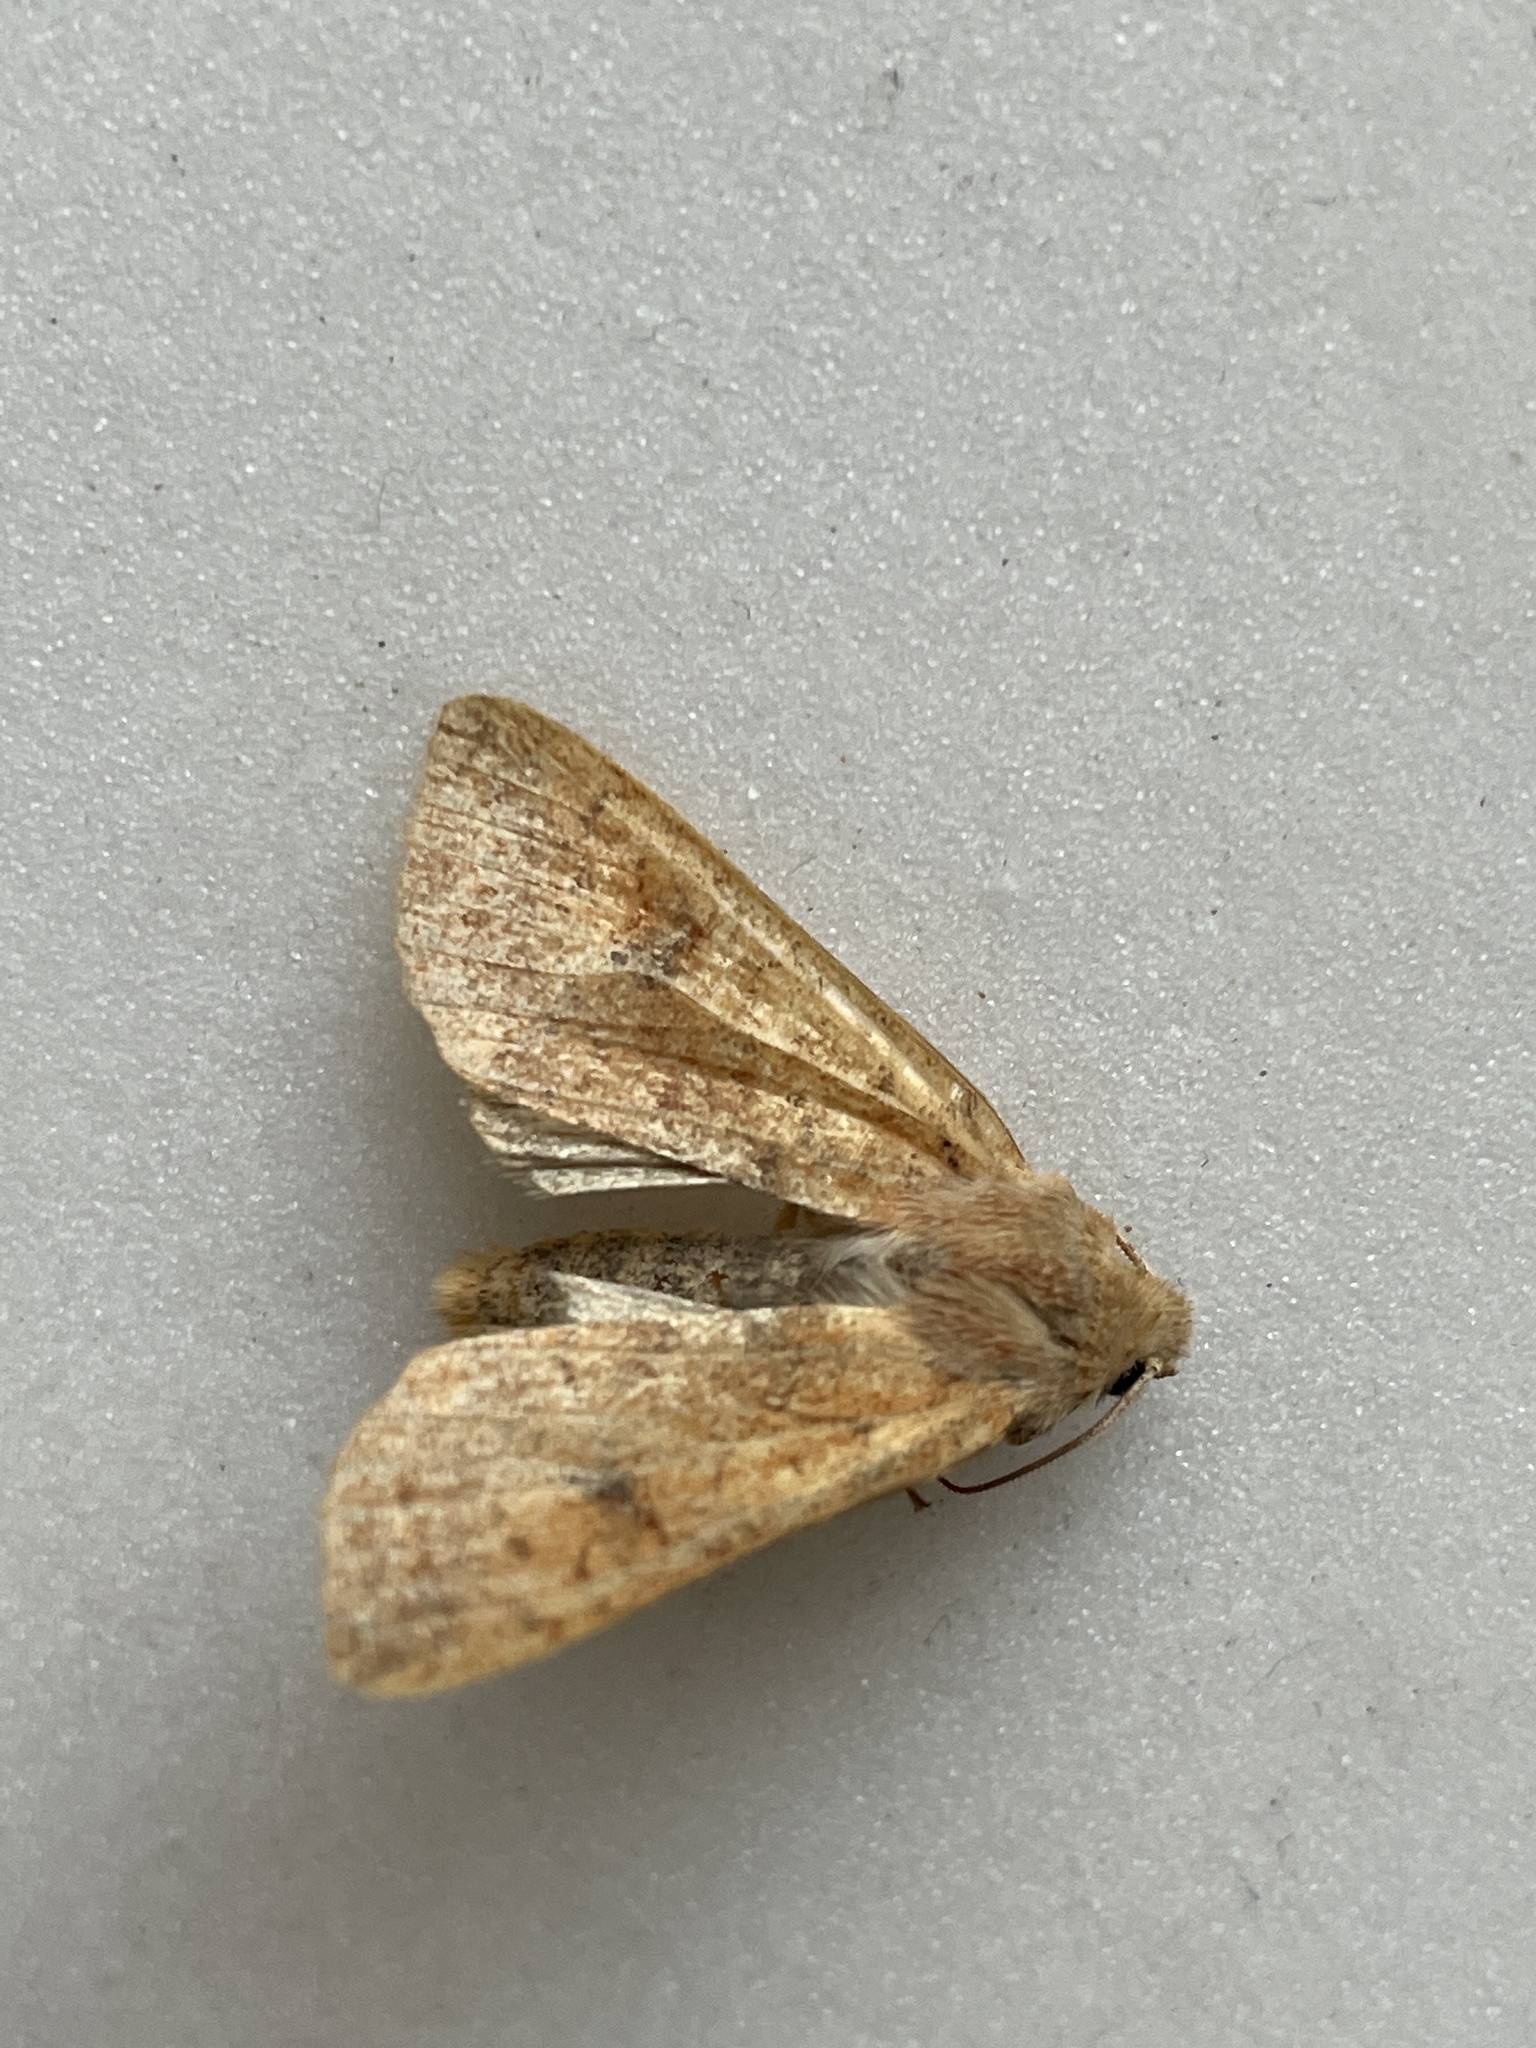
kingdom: Animalia
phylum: Arthropoda
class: Insecta
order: Lepidoptera
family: Noctuidae
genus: Sunira
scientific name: Sunira circellaris
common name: Brick
